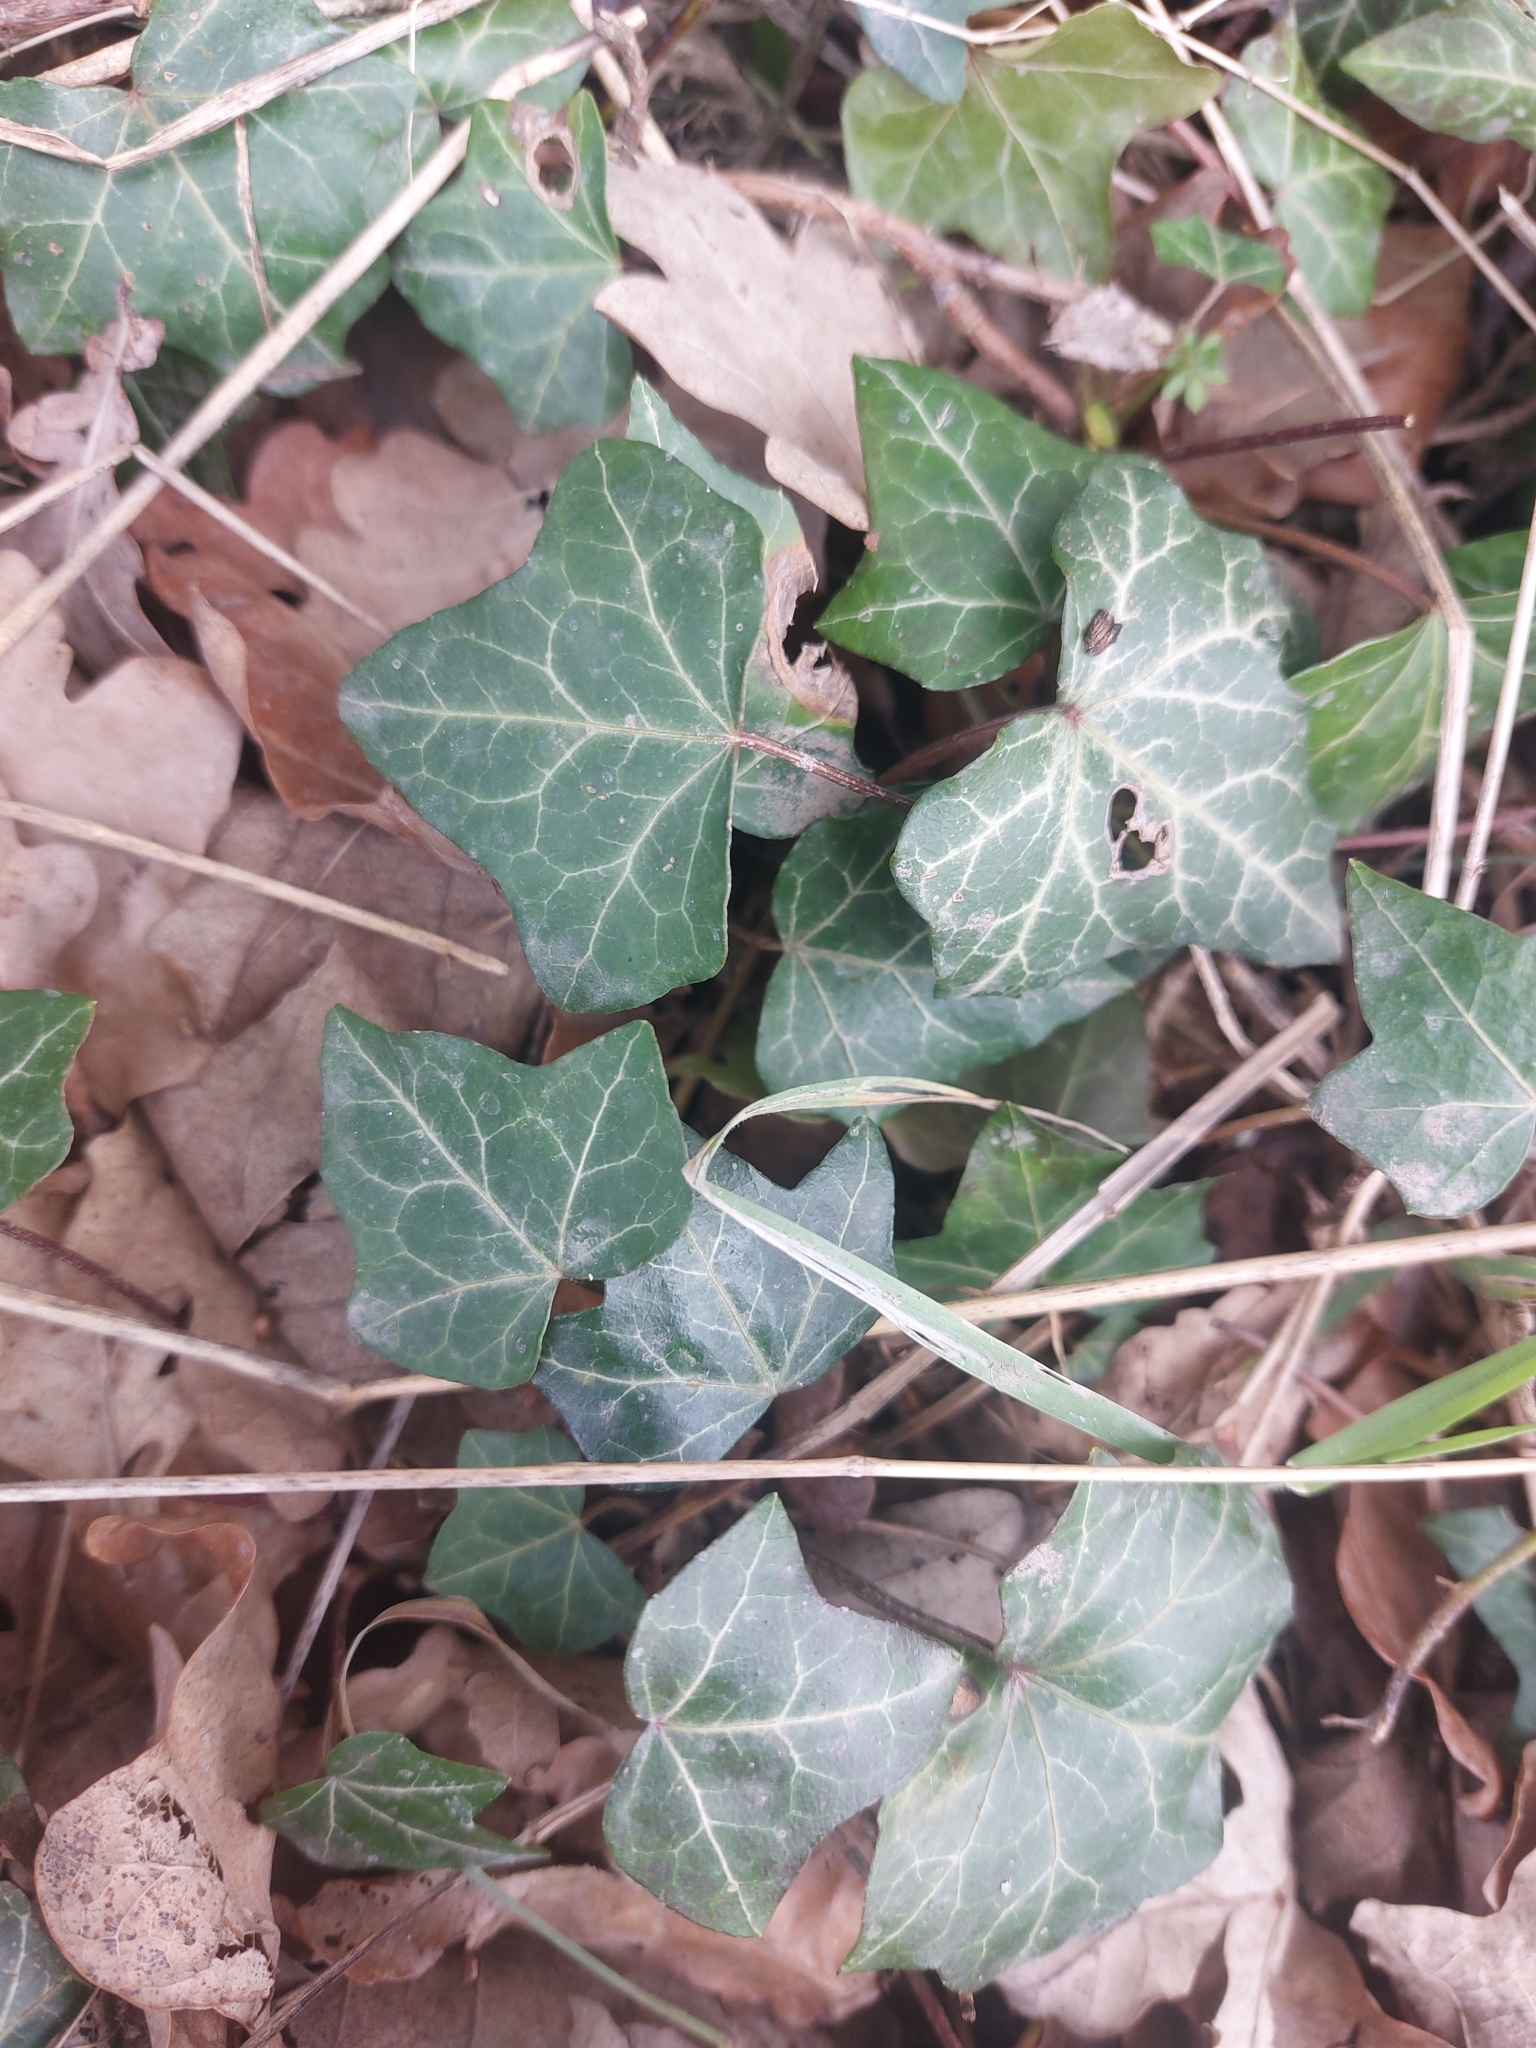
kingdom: Plantae
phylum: Tracheophyta
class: Magnoliopsida
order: Apiales
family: Araliaceae
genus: Hedera
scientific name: Hedera helix
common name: Ivy
